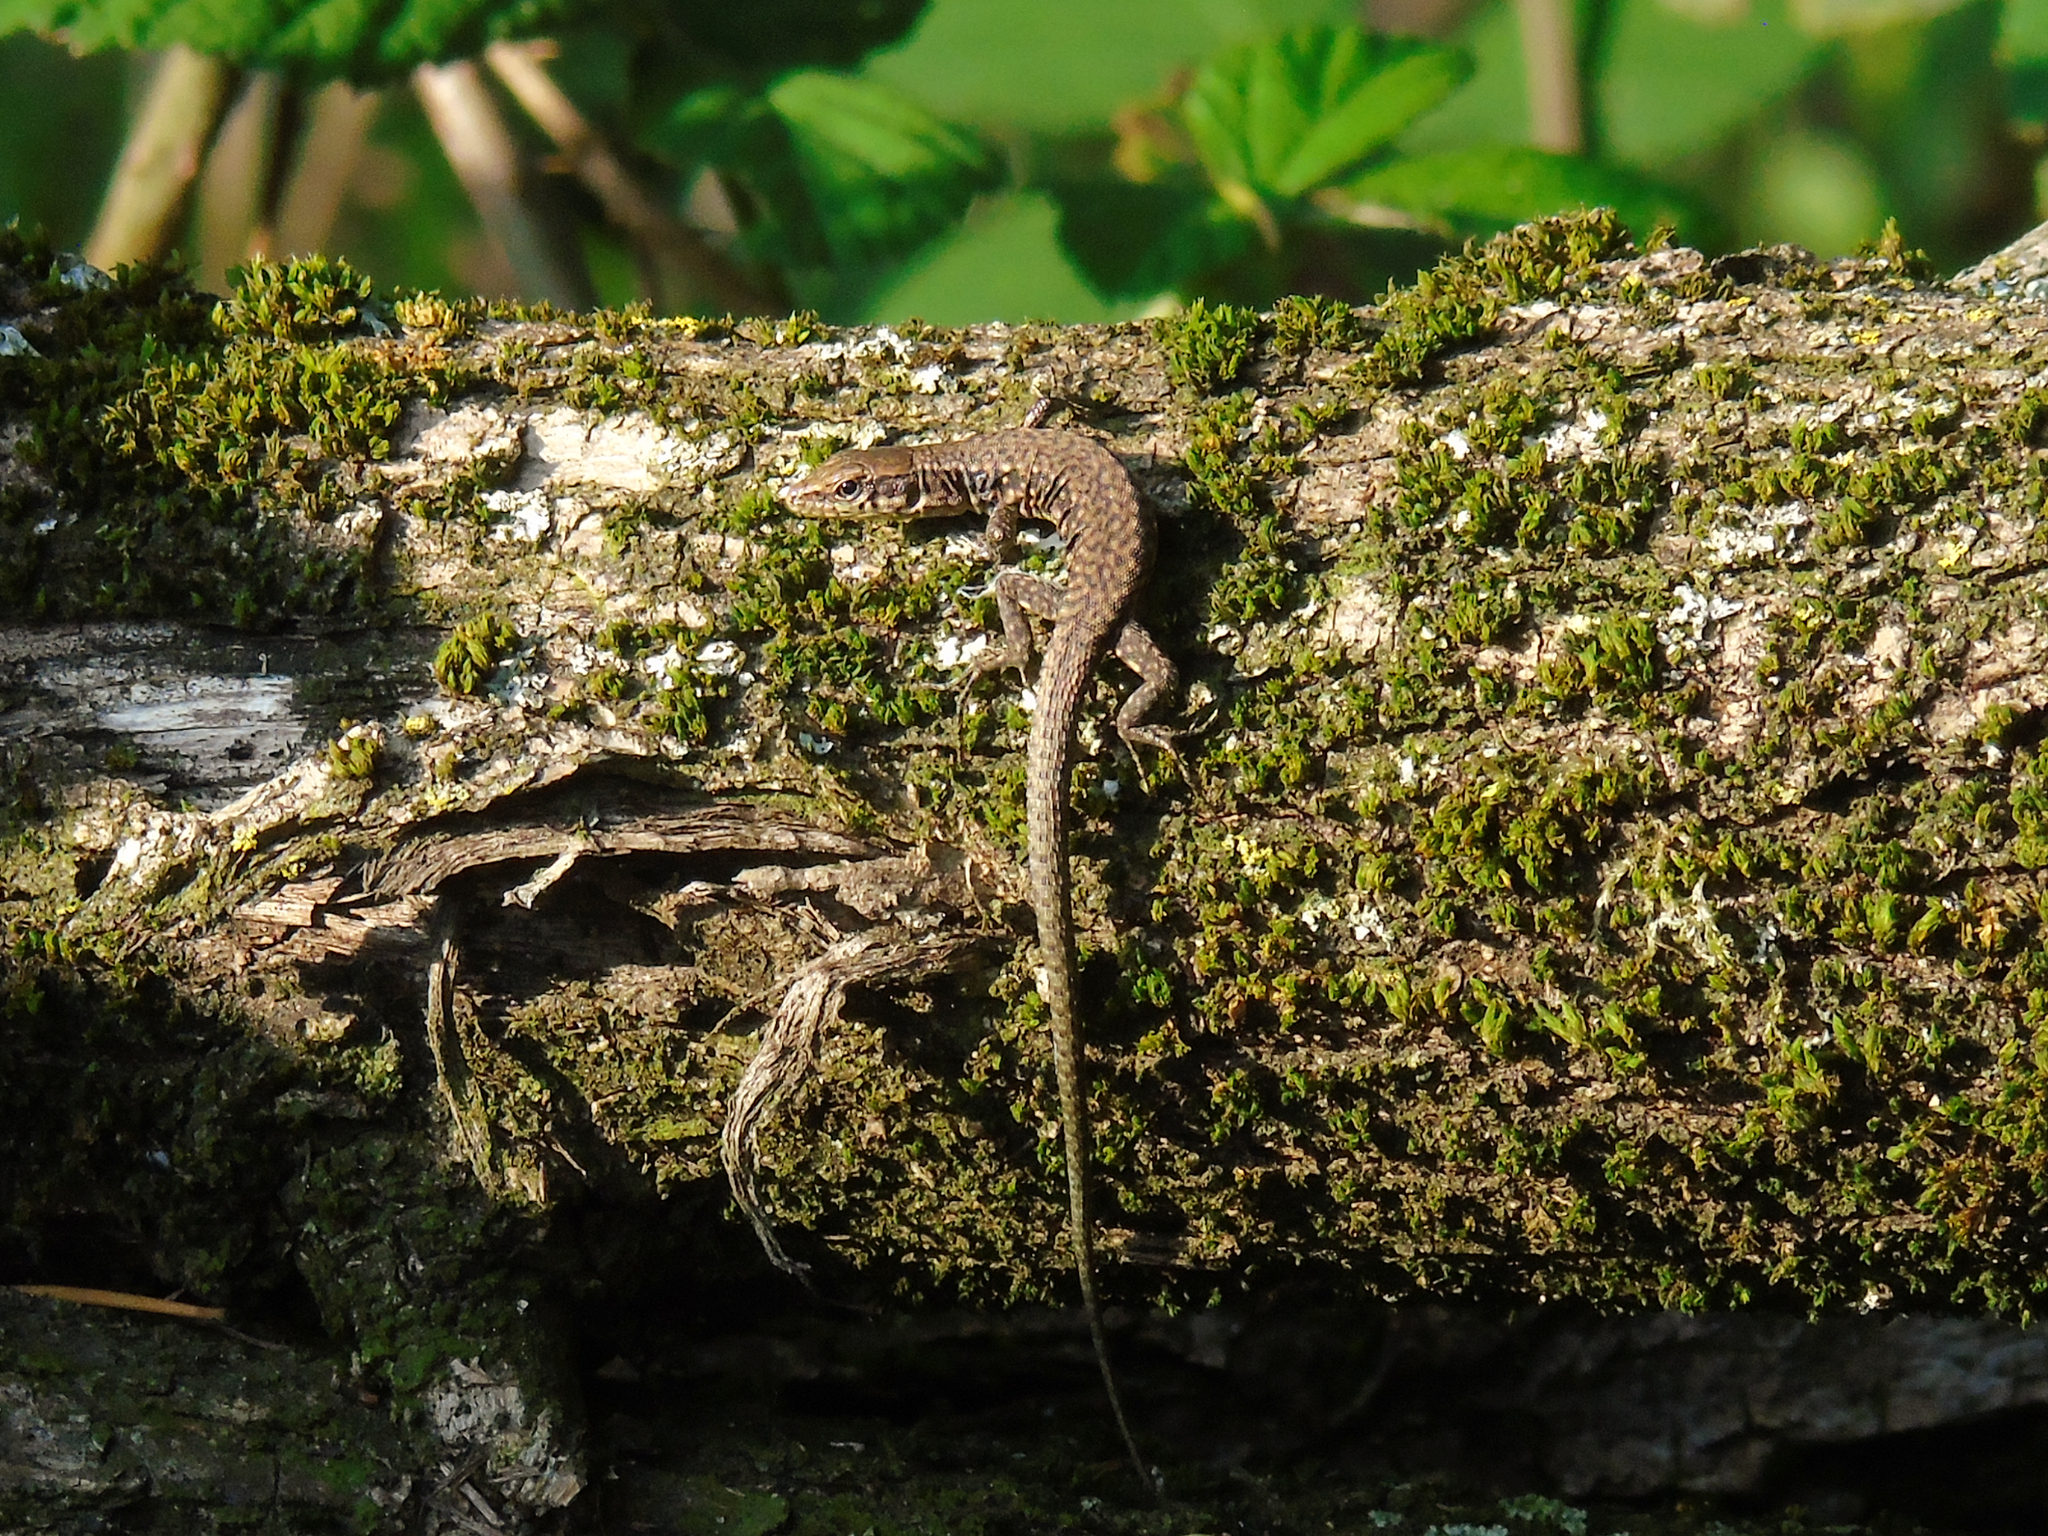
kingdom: Animalia
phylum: Chordata
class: Squamata
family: Lacertidae
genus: Darevskia
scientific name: Darevskia rudis
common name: Spiny-tailed lizard
